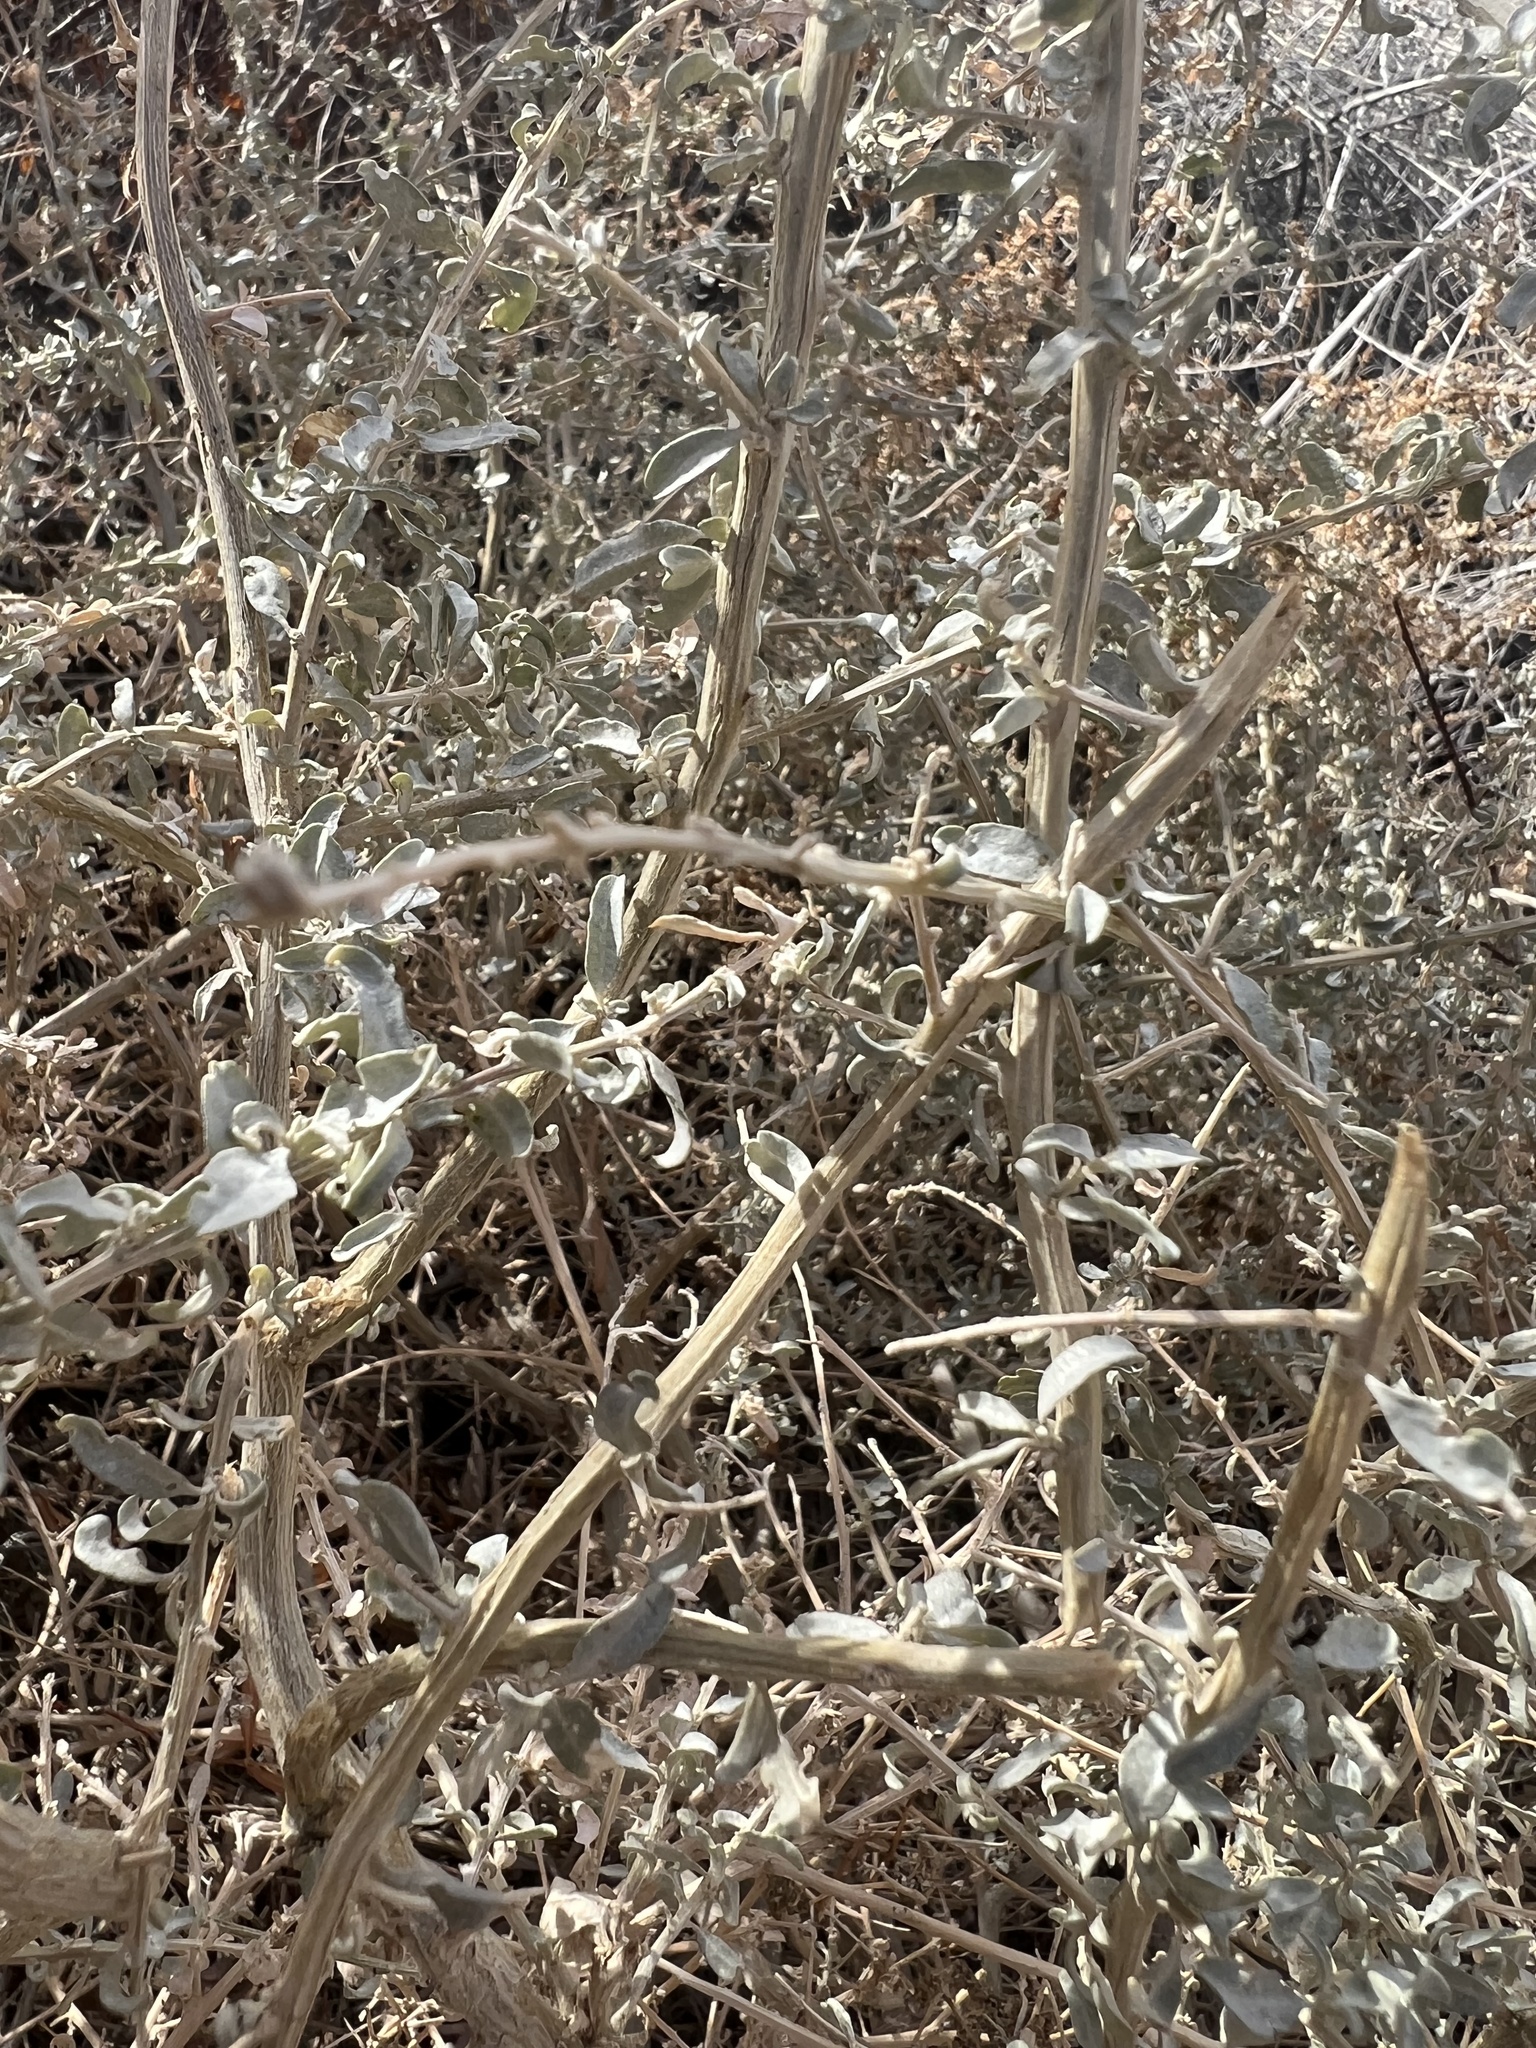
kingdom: Plantae
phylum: Tracheophyta
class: Magnoliopsida
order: Caryophyllales
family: Amaranthaceae
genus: Atriplex
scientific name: Atriplex torreyi
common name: Torrey's saltbush
